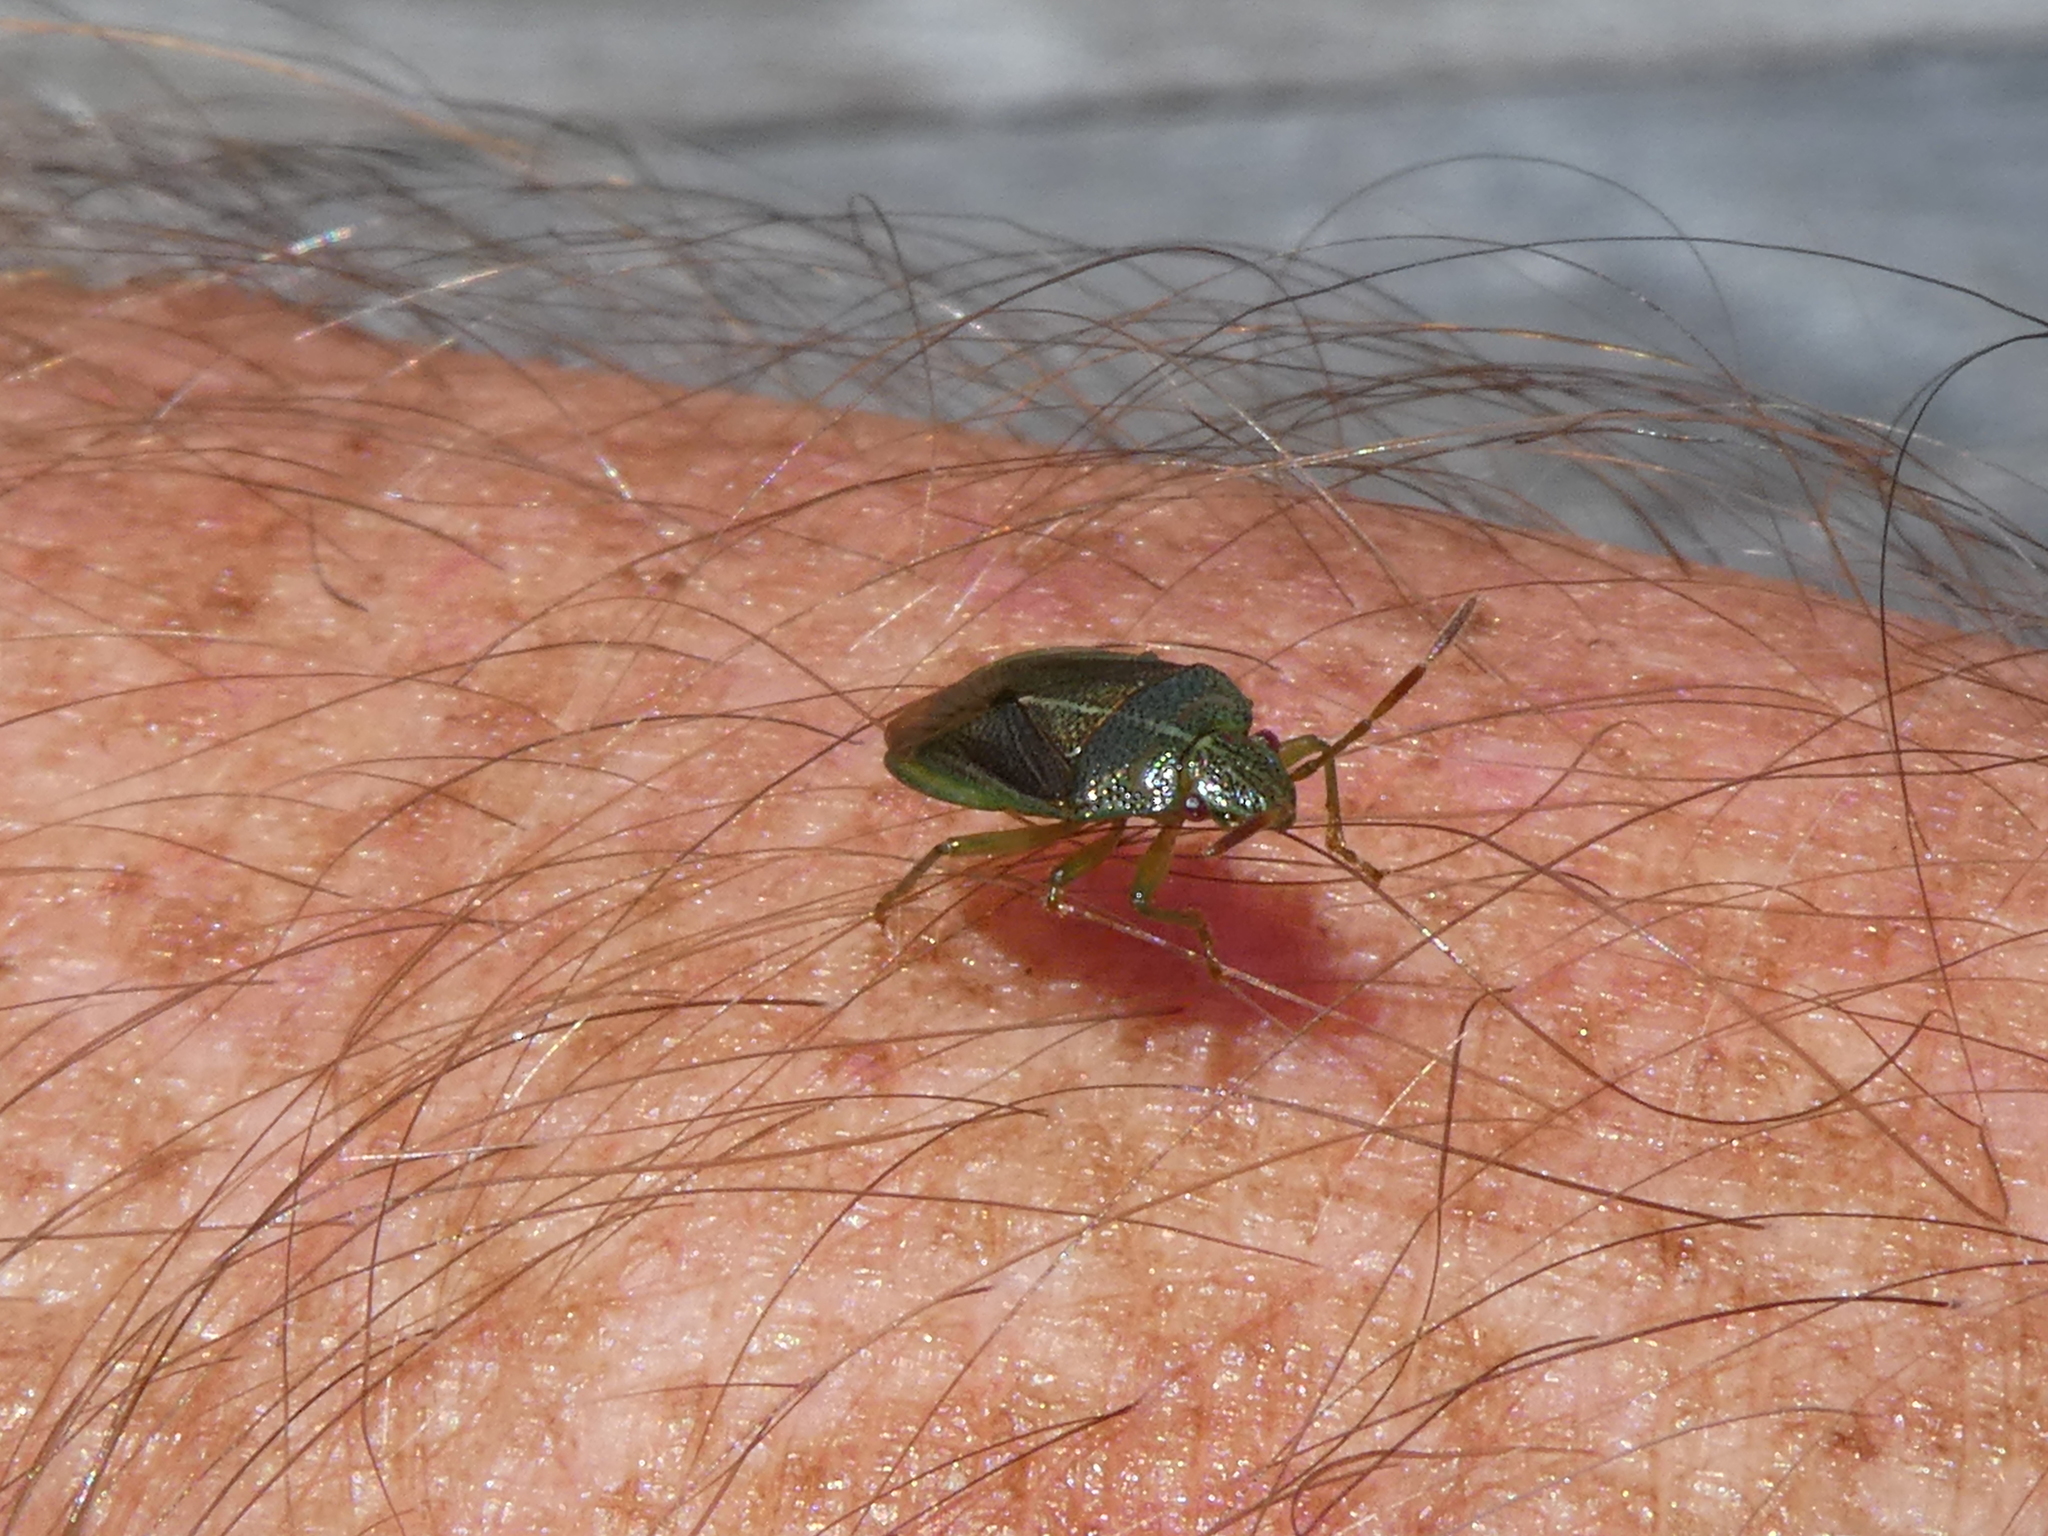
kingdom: Animalia
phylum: Arthropoda
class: Insecta
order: Hemiptera
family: Acanthosomatidae
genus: Rhopalimorpha
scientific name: Rhopalimorpha lineolaris
